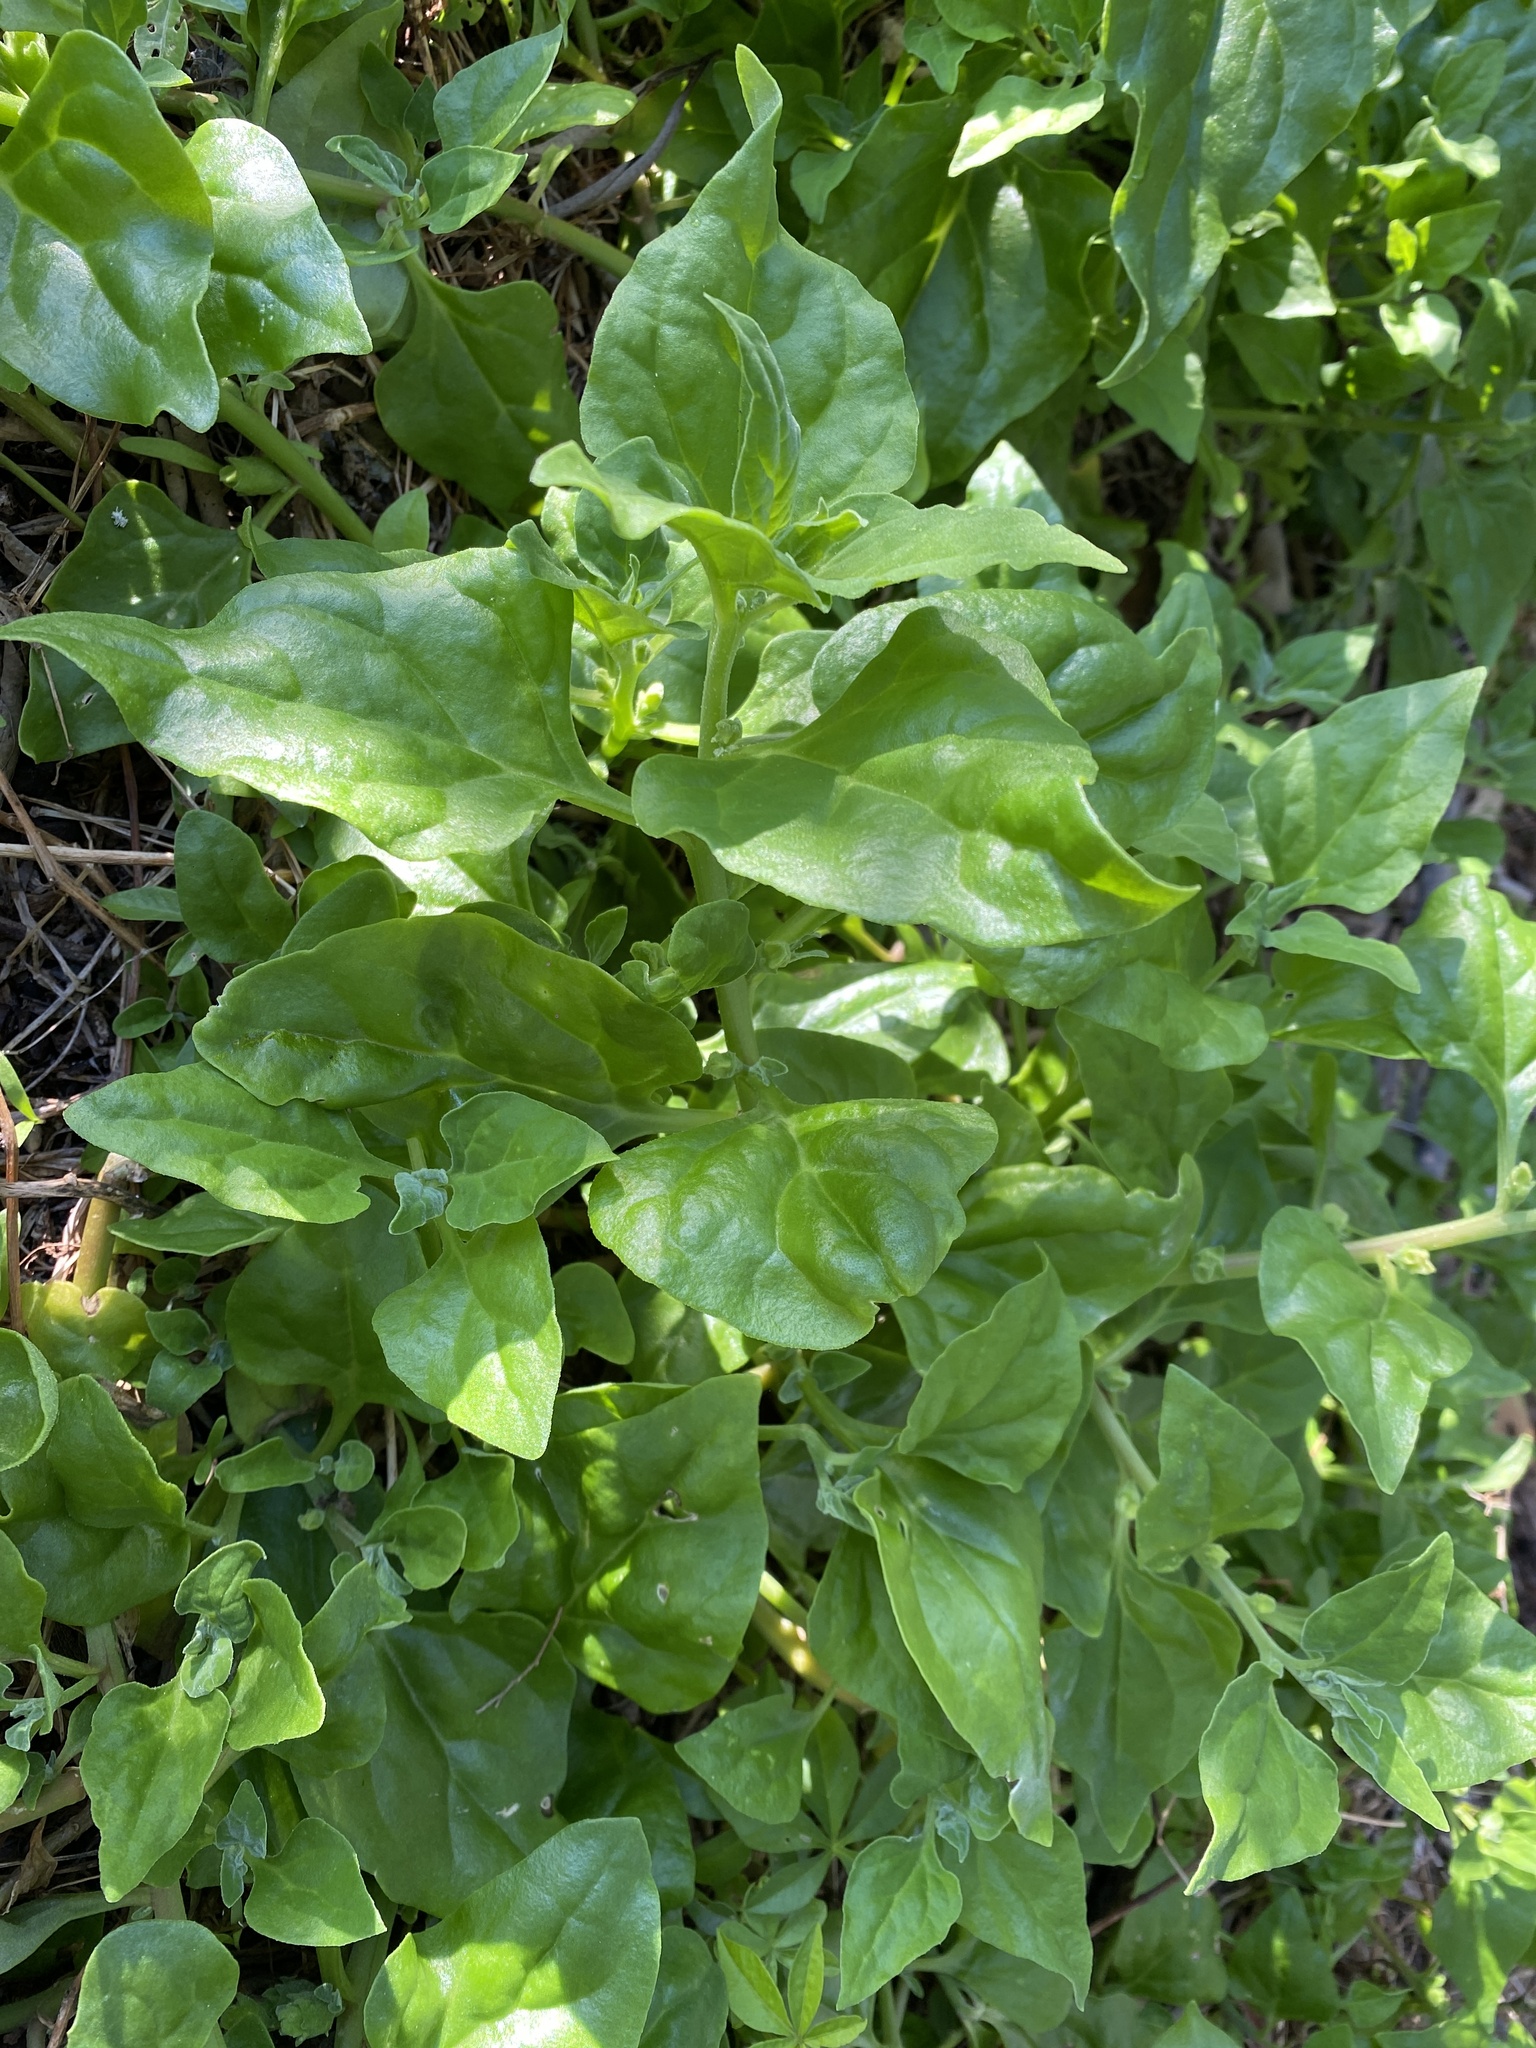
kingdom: Plantae
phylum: Tracheophyta
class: Magnoliopsida
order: Caryophyllales
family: Aizoaceae
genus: Tetragonia
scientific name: Tetragonia tetragonoides
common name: New zealand-spinach
